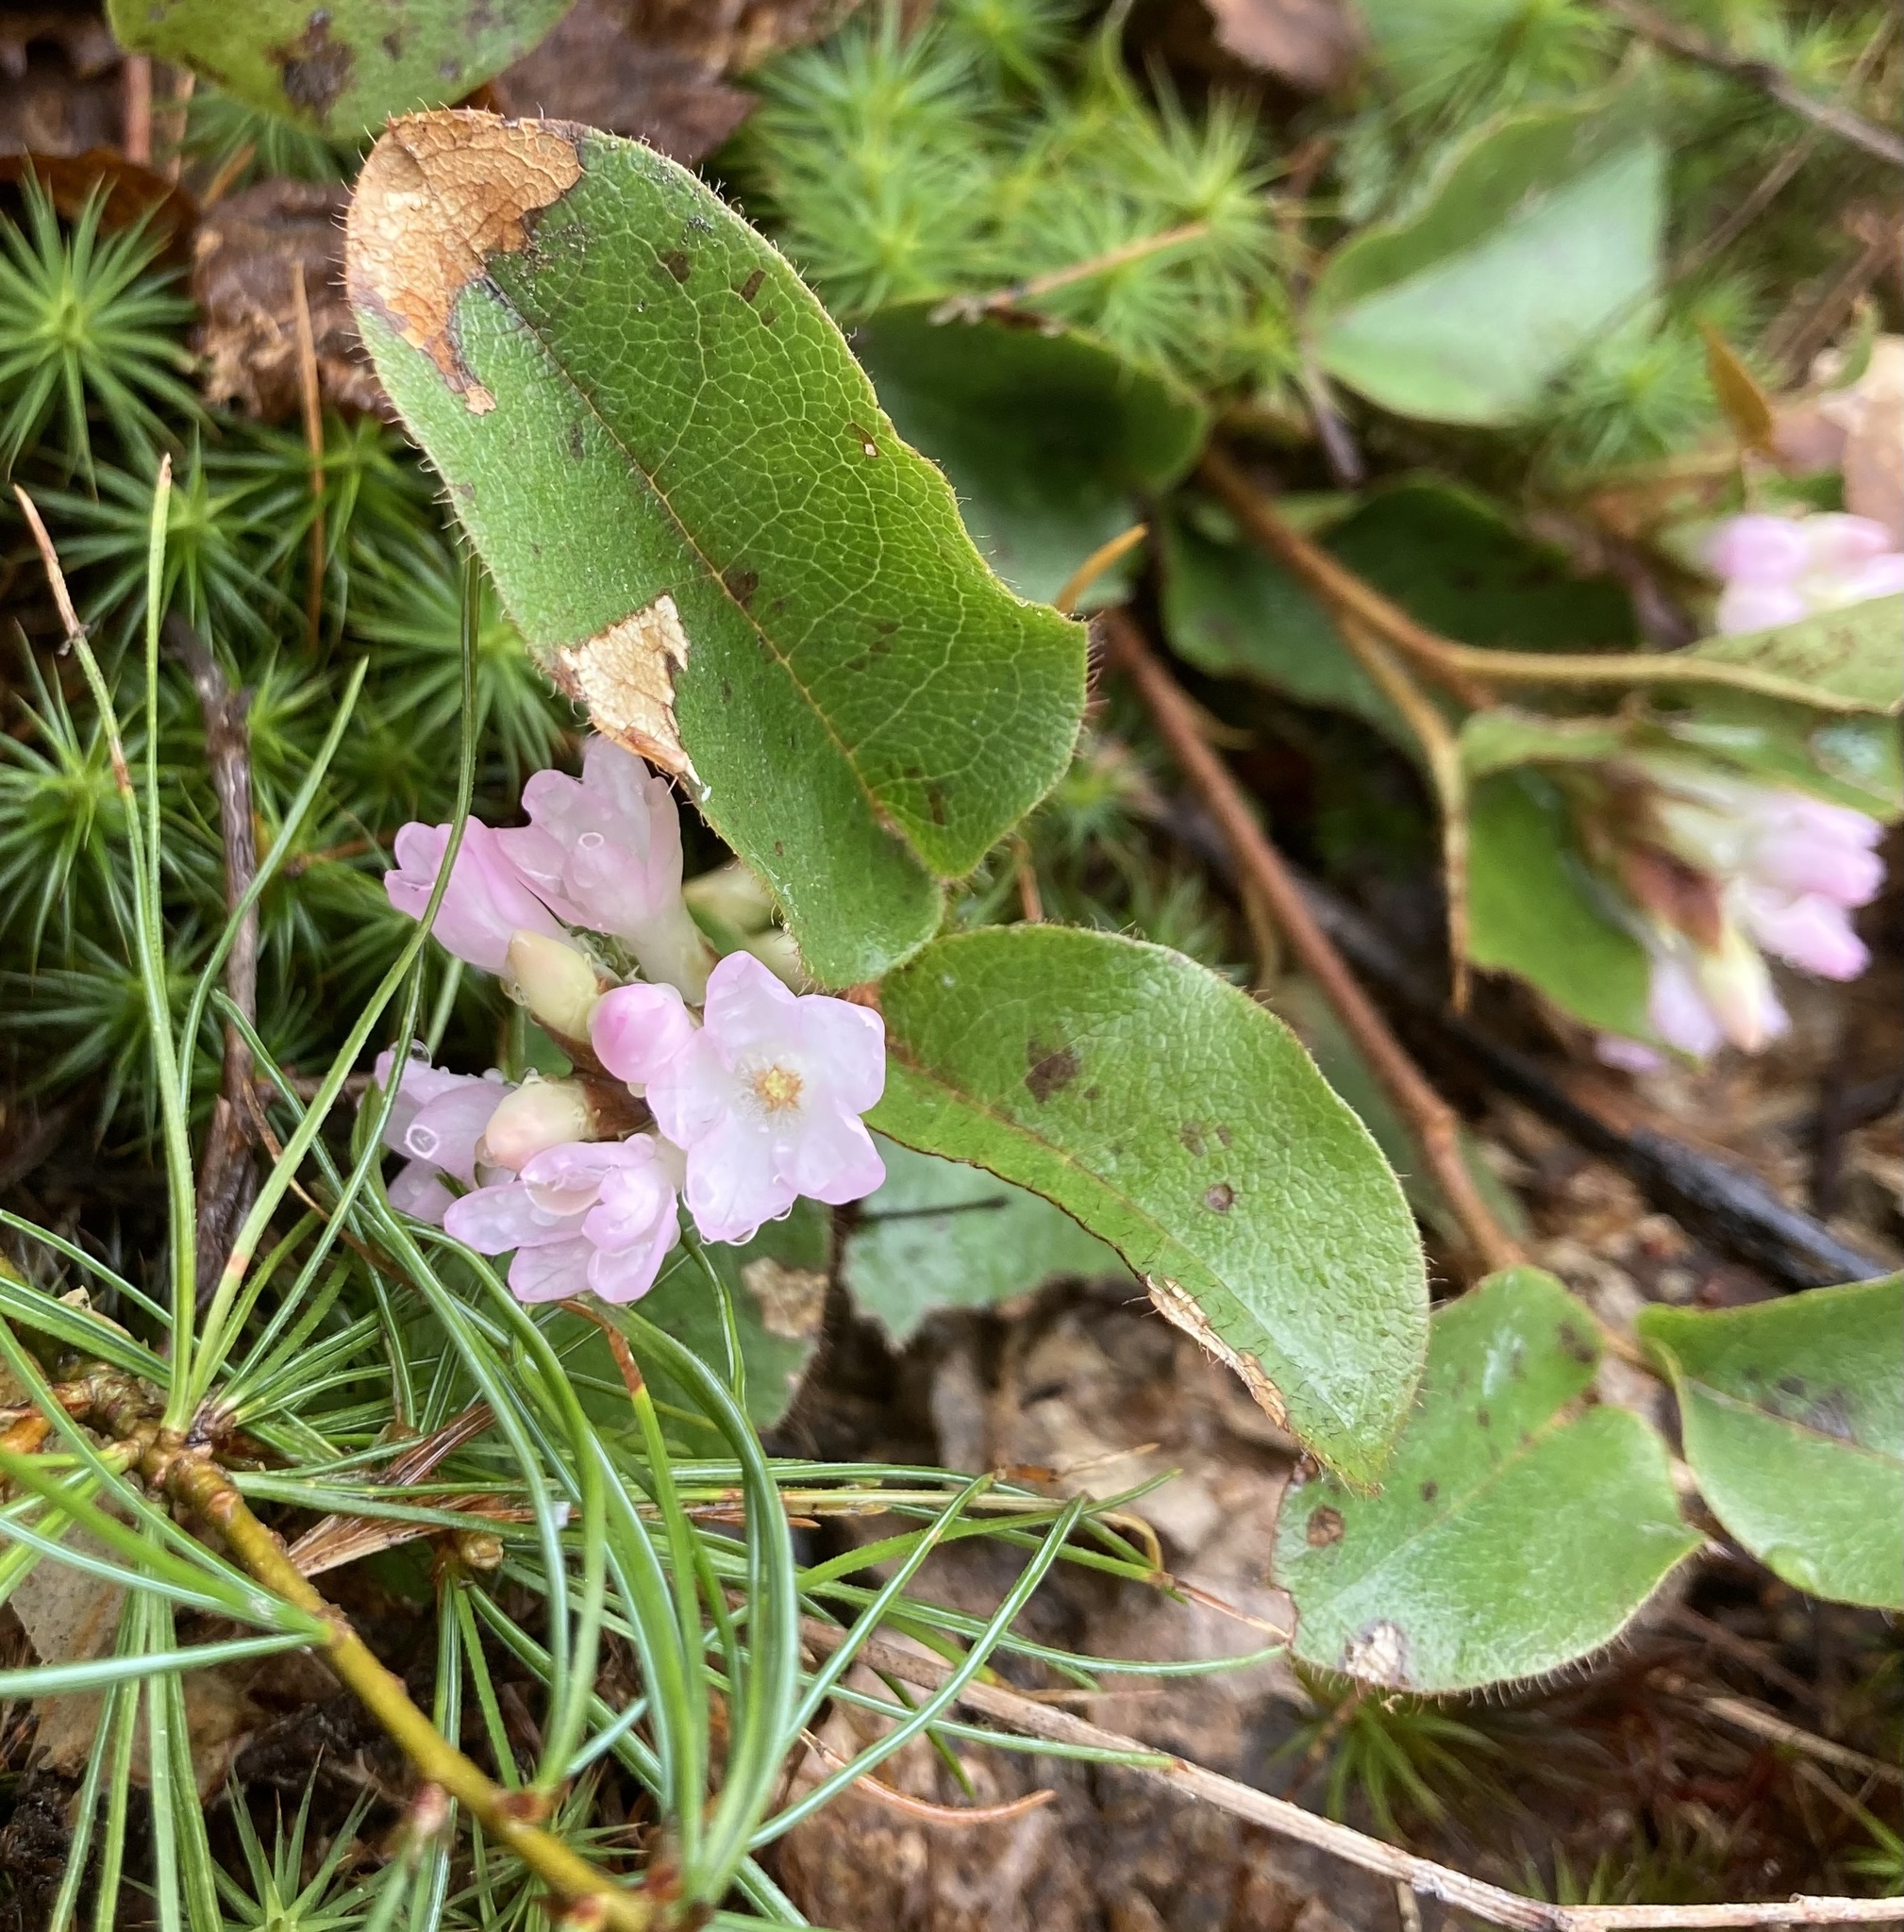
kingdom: Plantae
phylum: Tracheophyta
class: Magnoliopsida
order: Ericales
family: Ericaceae
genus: Epigaea
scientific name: Epigaea repens
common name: Gravelroot
